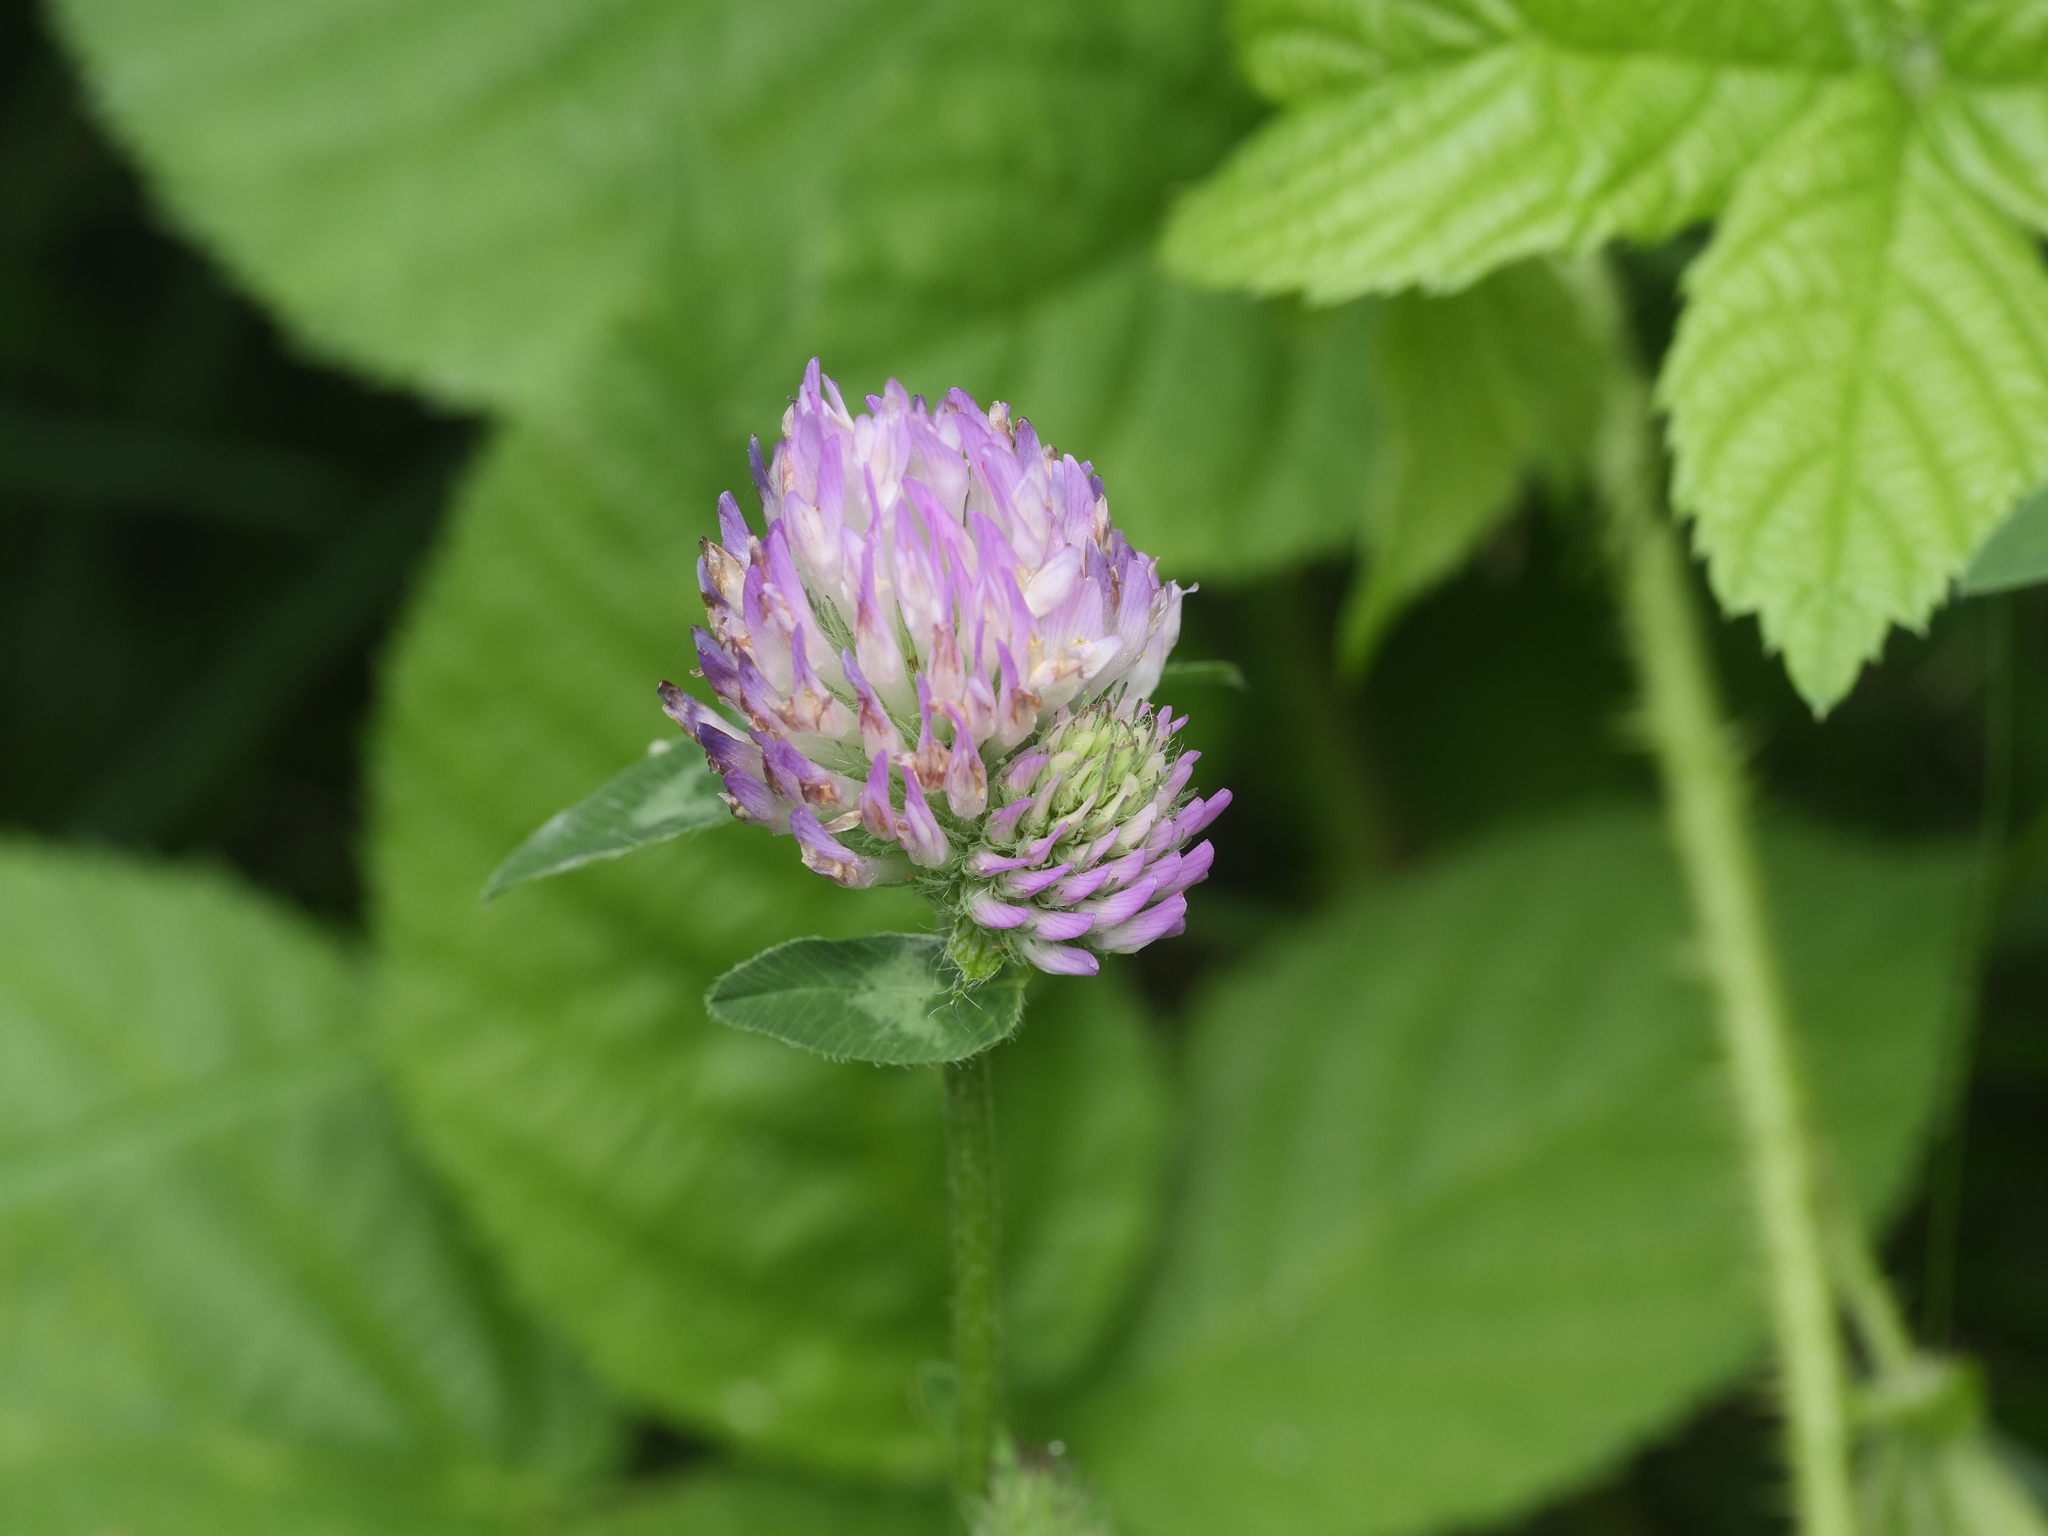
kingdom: Plantae
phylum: Tracheophyta
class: Magnoliopsida
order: Fabales
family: Fabaceae
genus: Trifolium
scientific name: Trifolium pratense
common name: Red clover
